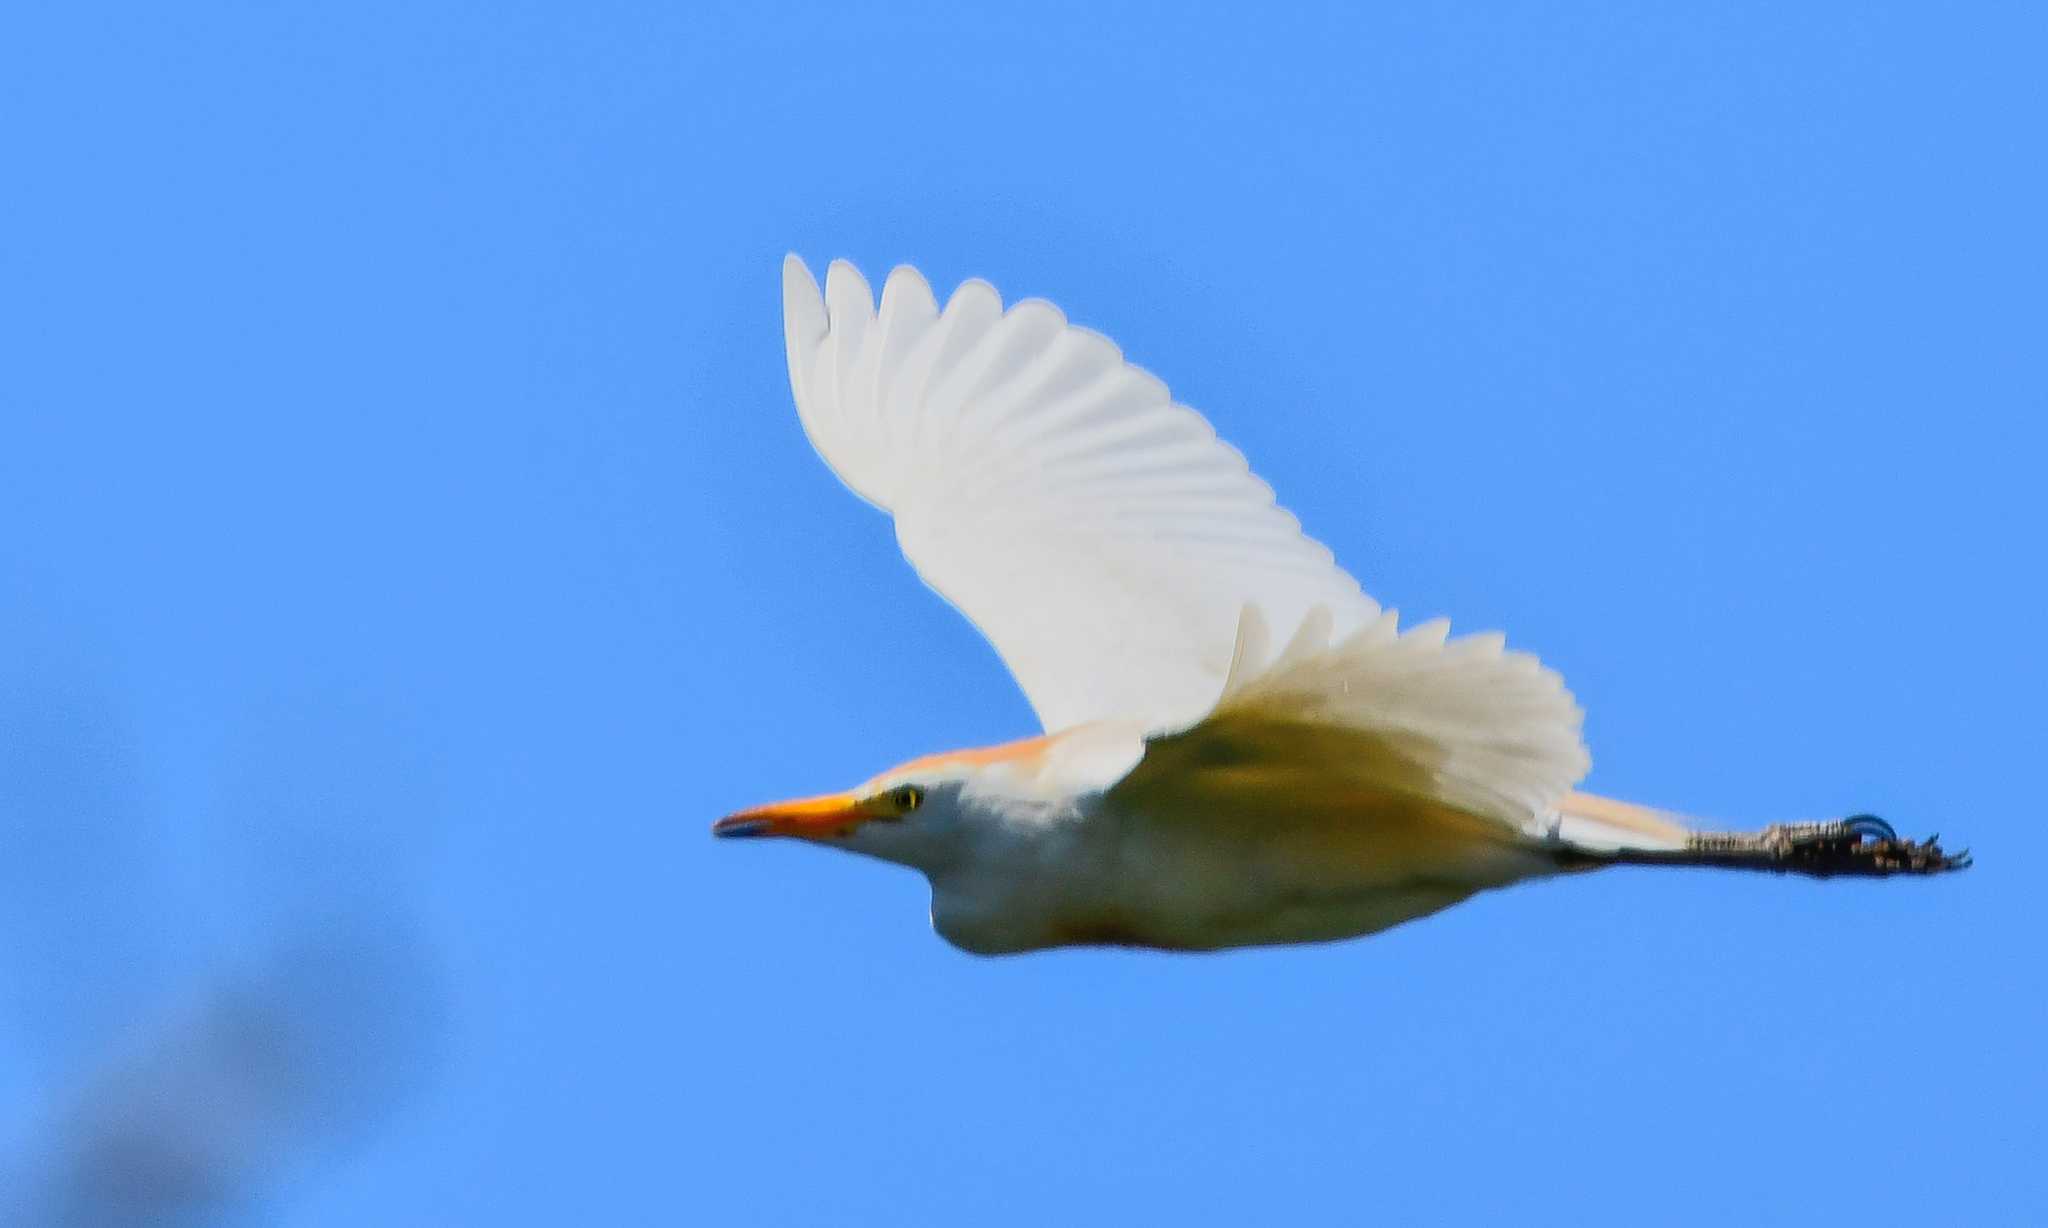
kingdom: Animalia
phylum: Chordata
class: Aves
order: Pelecaniformes
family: Ardeidae
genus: Bubulcus
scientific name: Bubulcus ibis
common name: Cattle egret
